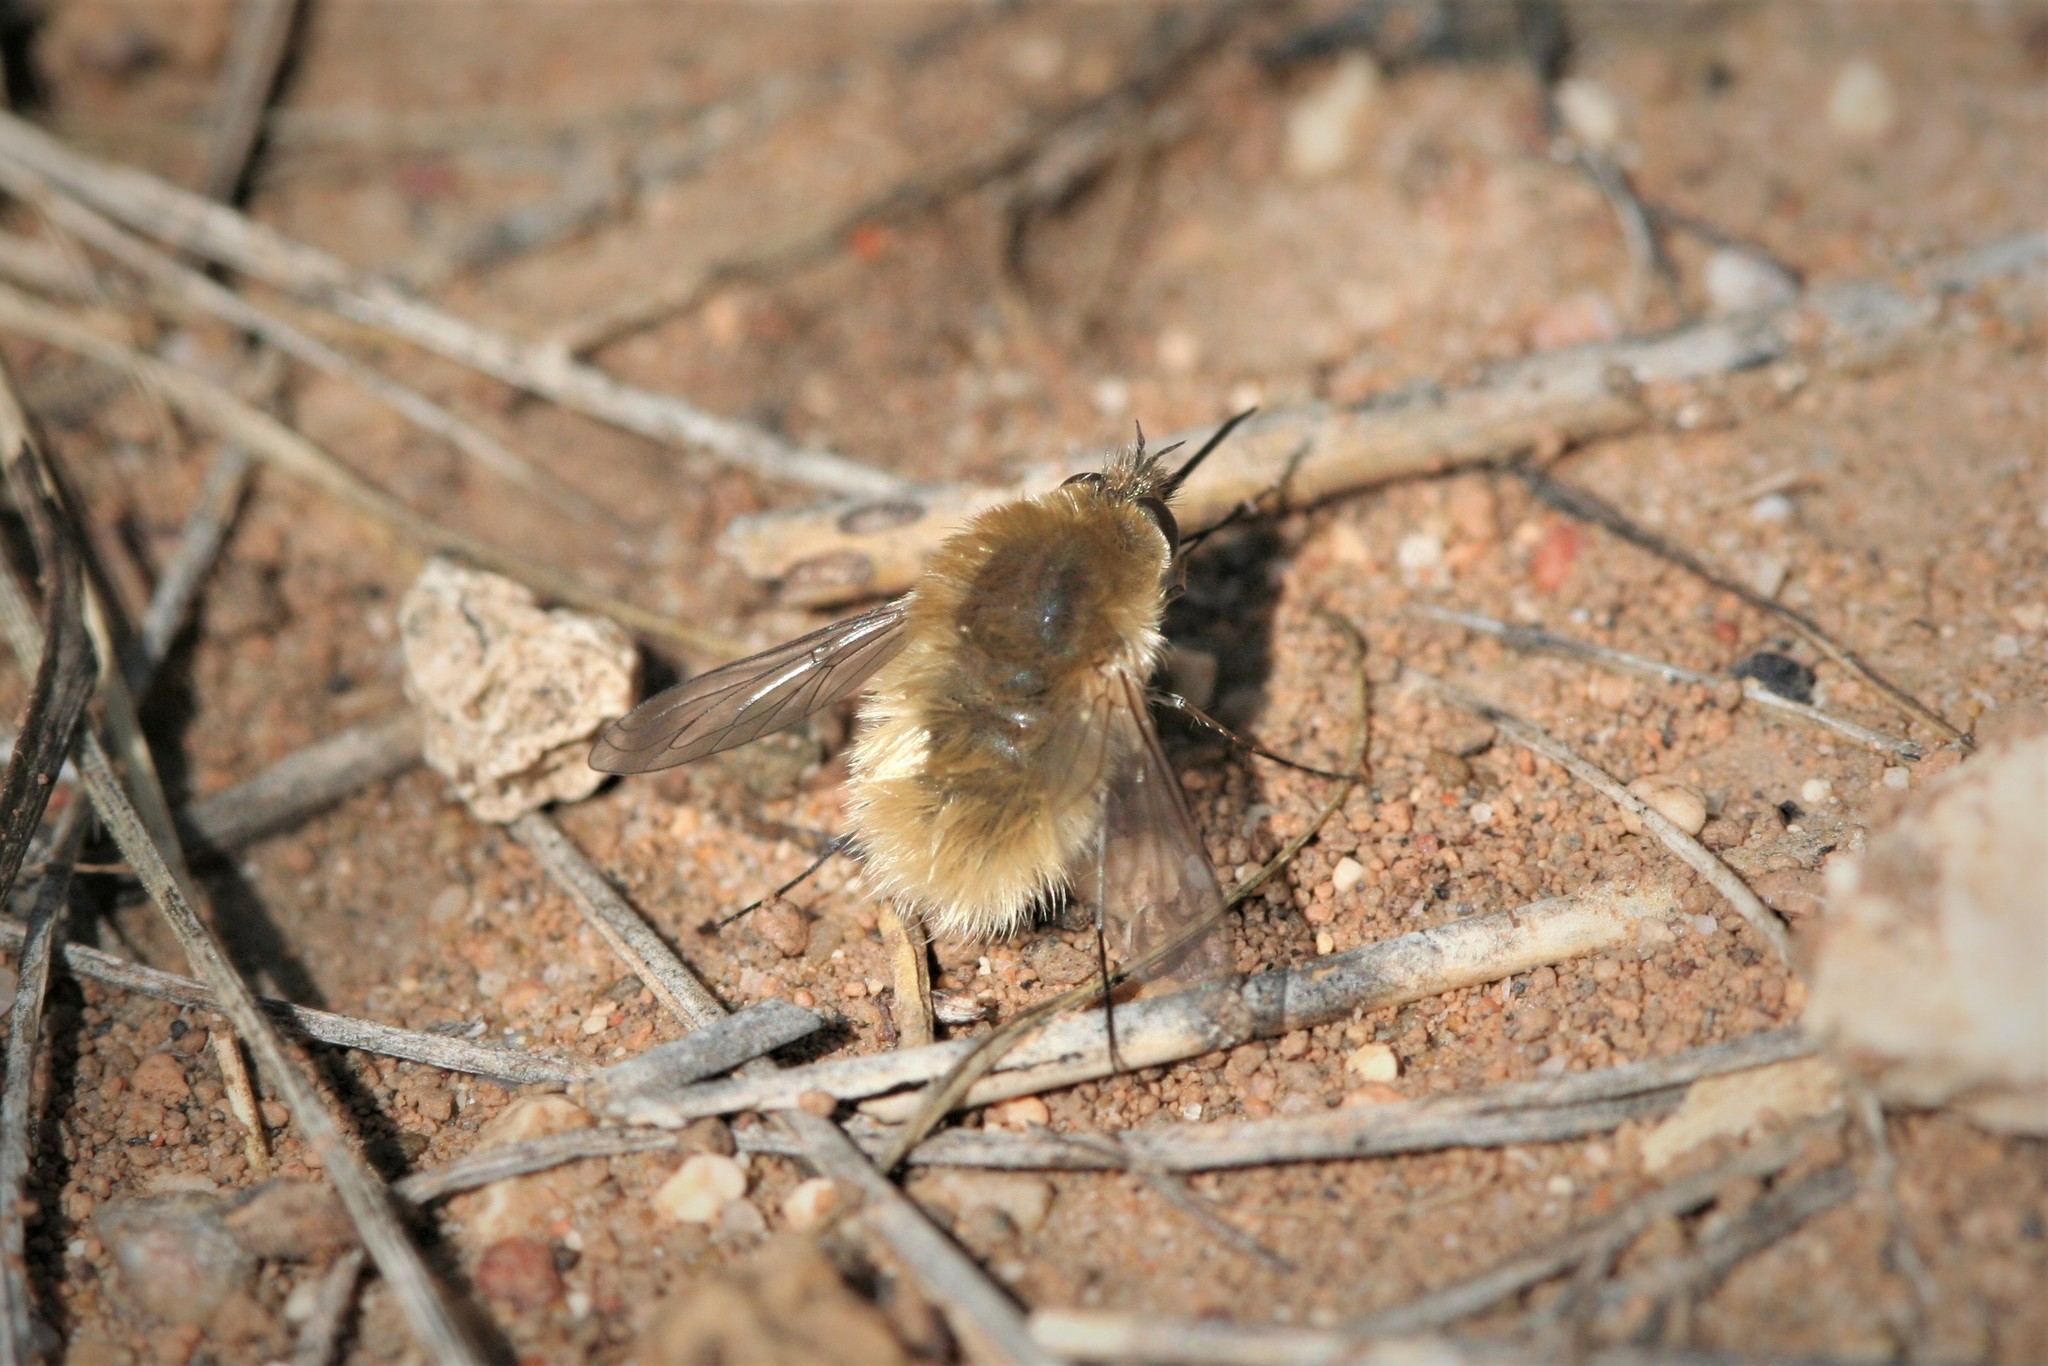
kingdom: Animalia
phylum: Arthropoda
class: Insecta
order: Diptera
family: Bombyliidae
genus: Systoechus
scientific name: Systoechus gradatus
